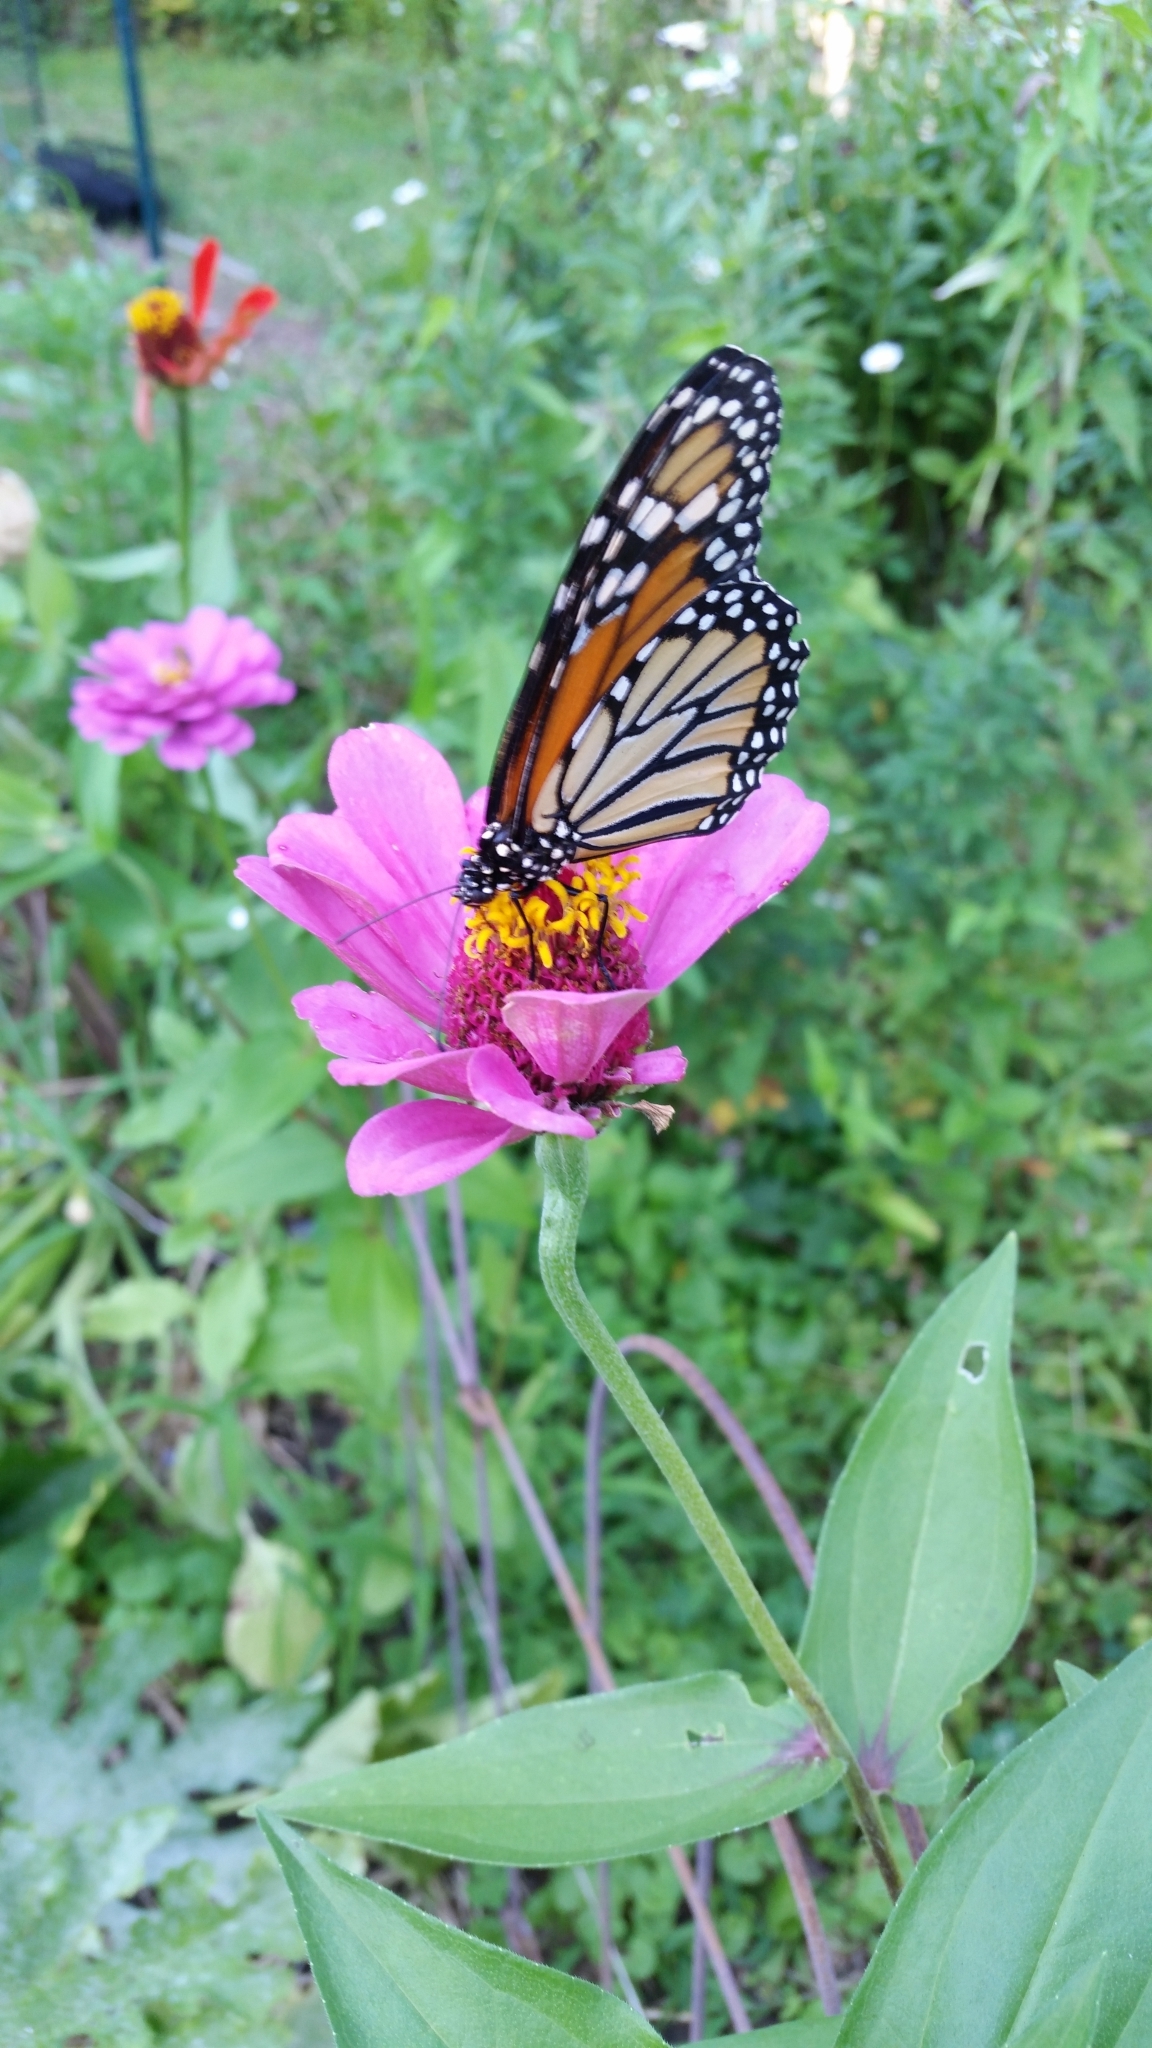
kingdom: Animalia
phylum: Arthropoda
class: Insecta
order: Lepidoptera
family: Nymphalidae
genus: Danaus
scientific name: Danaus plexippus
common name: Monarch
